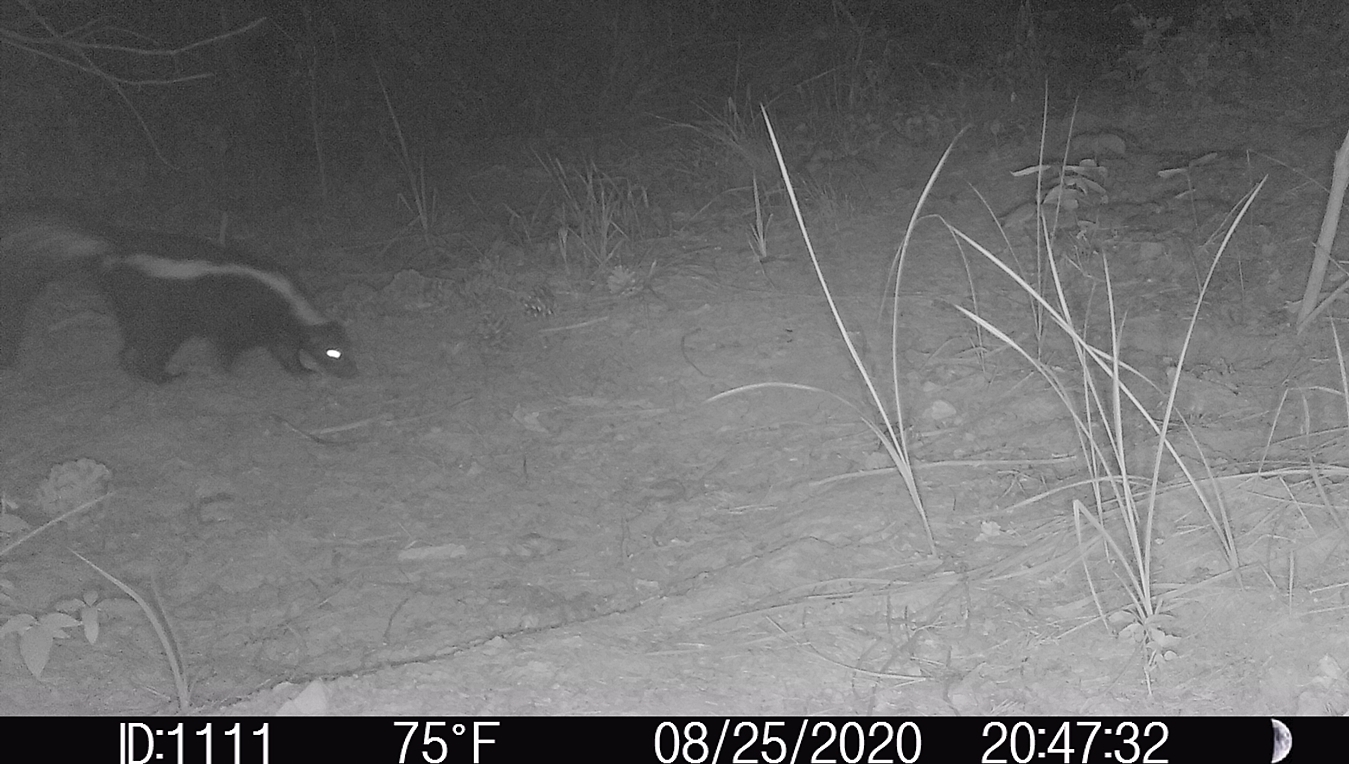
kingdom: Animalia
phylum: Chordata
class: Mammalia
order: Carnivora
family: Mephitidae
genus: Mephitis
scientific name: Mephitis mephitis
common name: Striped skunk
